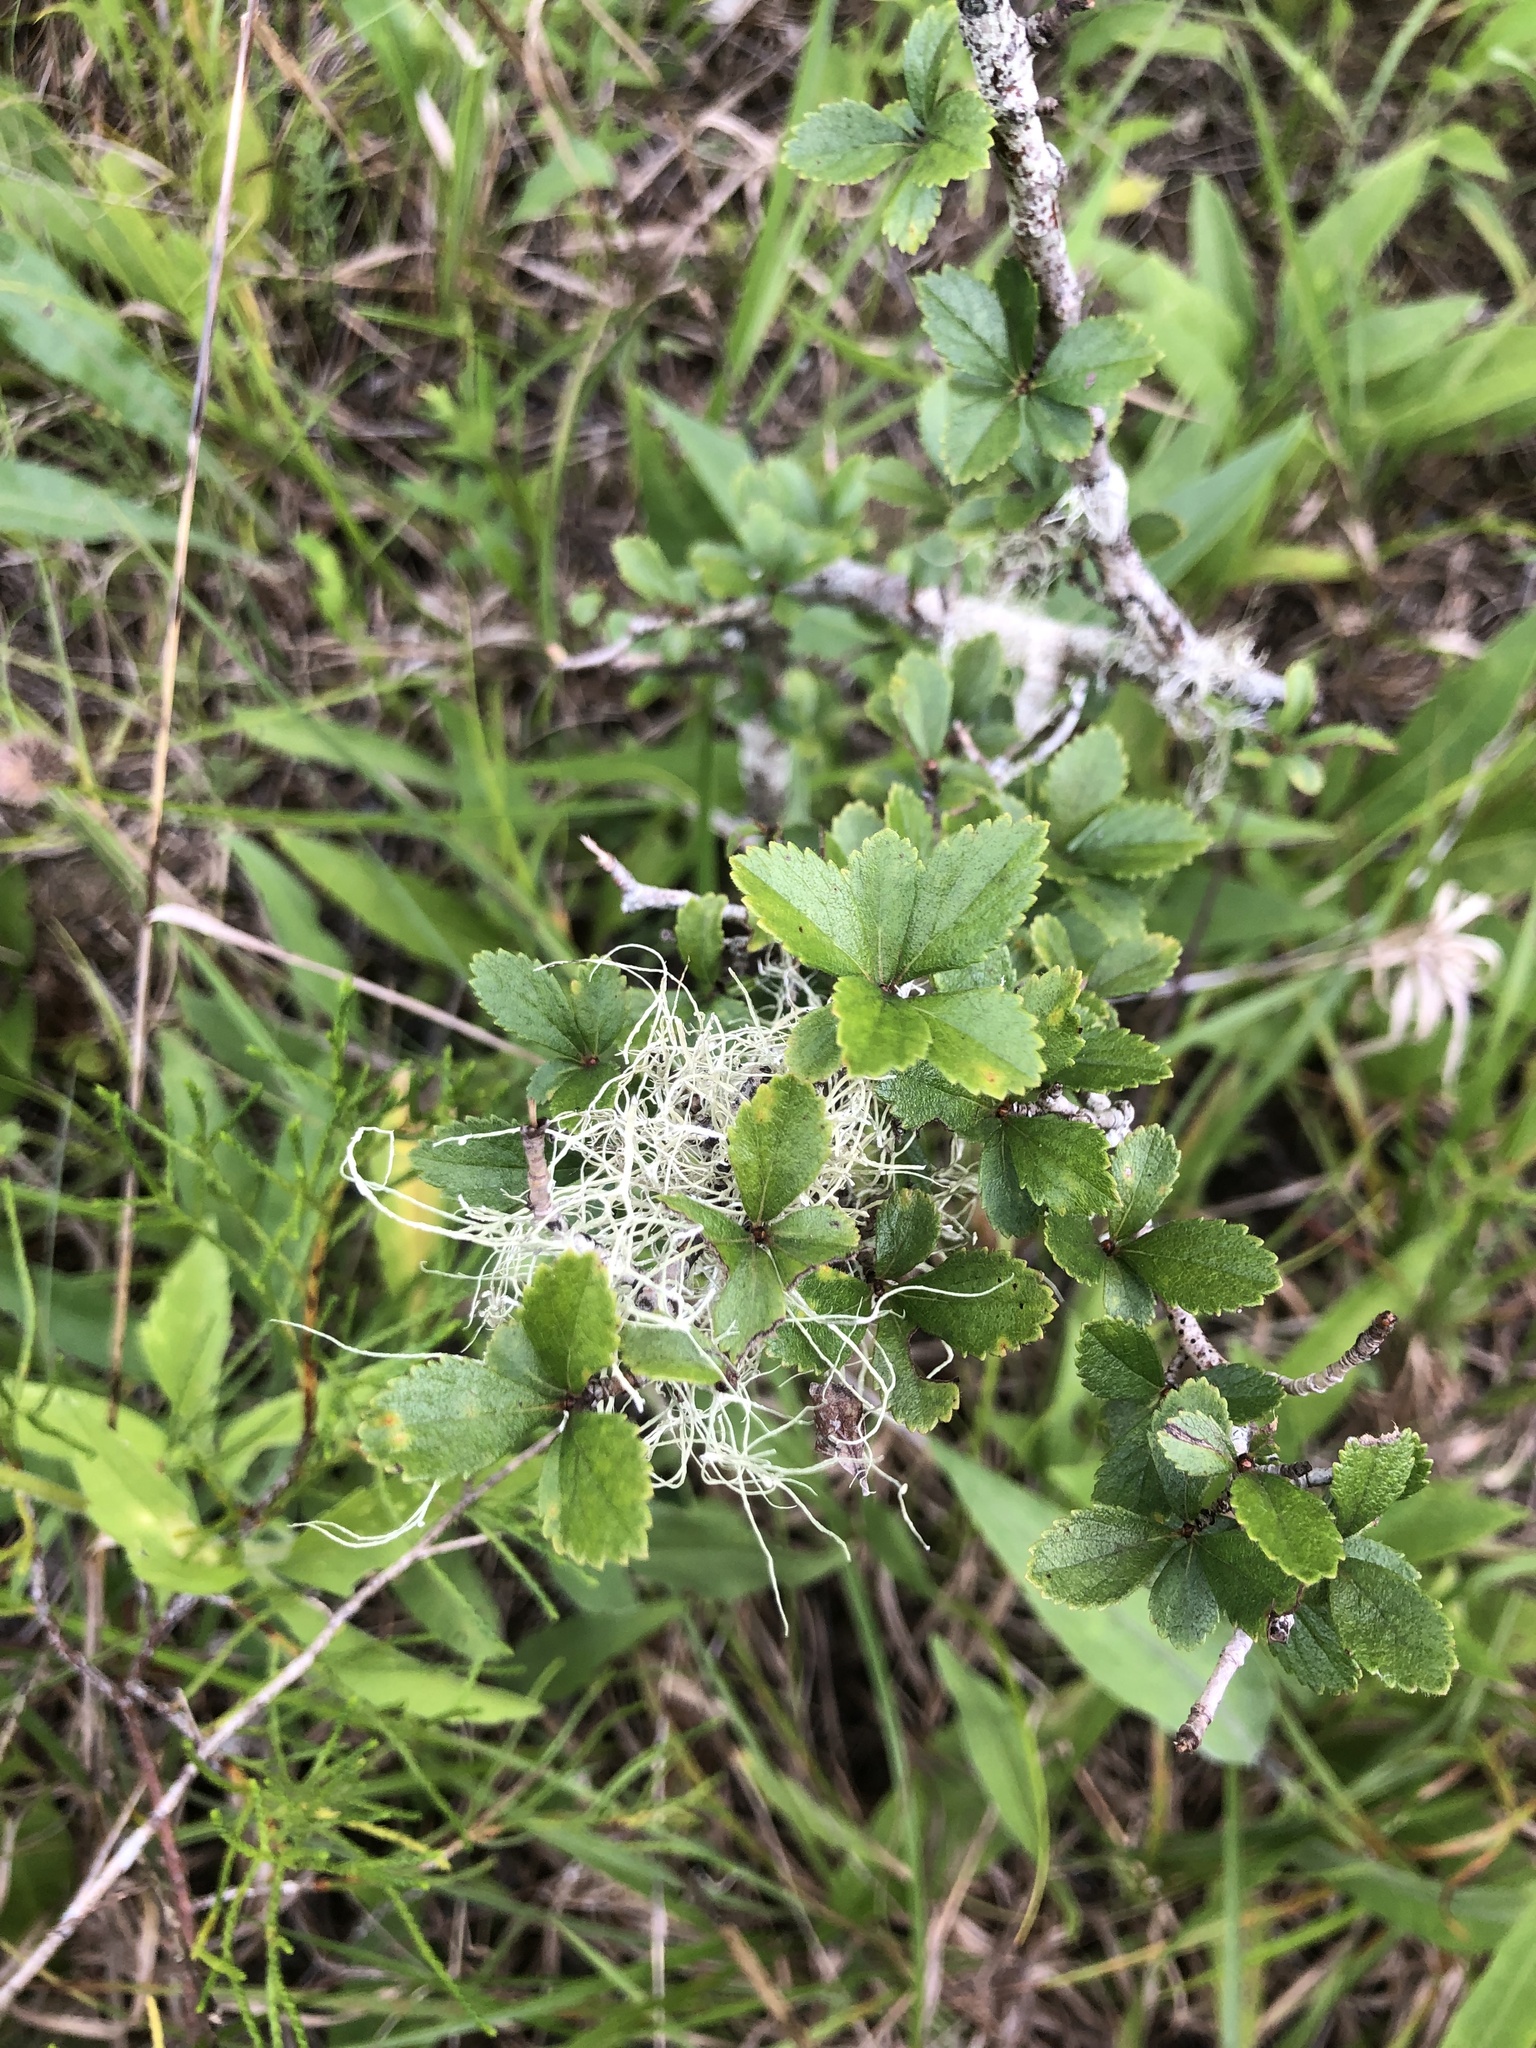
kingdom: Plantae
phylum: Tracheophyta
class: Magnoliopsida
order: Rosales
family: Rosaceae
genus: Crataegus
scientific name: Crataegus uniflora
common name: One-flower hawthorn
